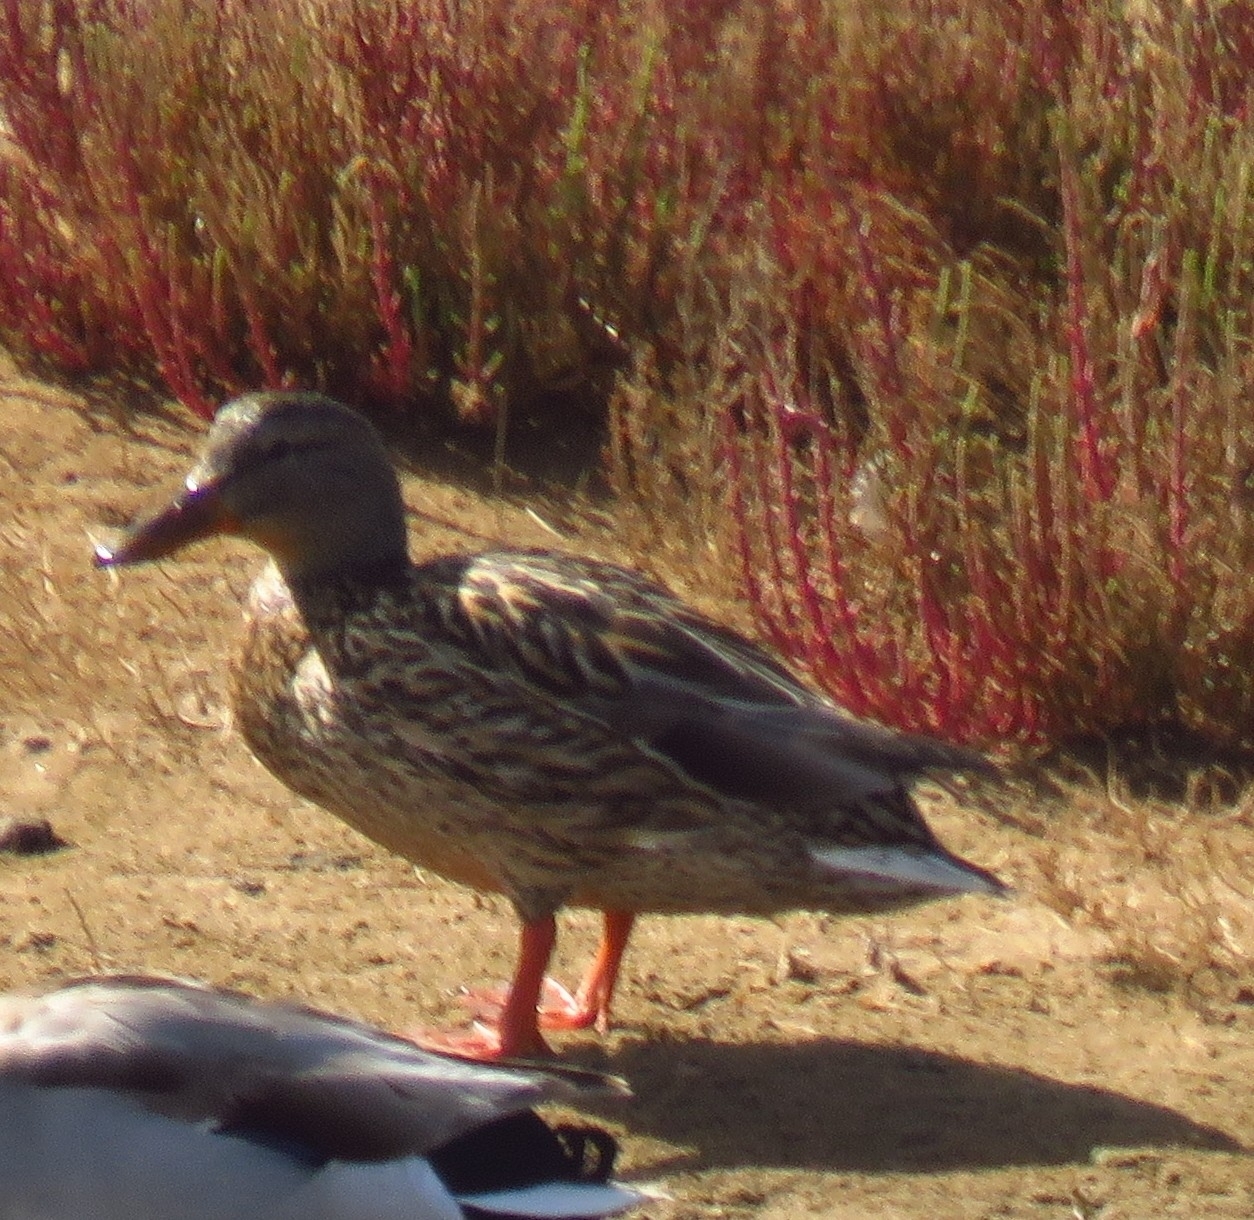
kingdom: Animalia
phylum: Chordata
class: Aves
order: Anseriformes
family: Anatidae
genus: Anas
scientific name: Anas platyrhynchos
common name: Mallard
